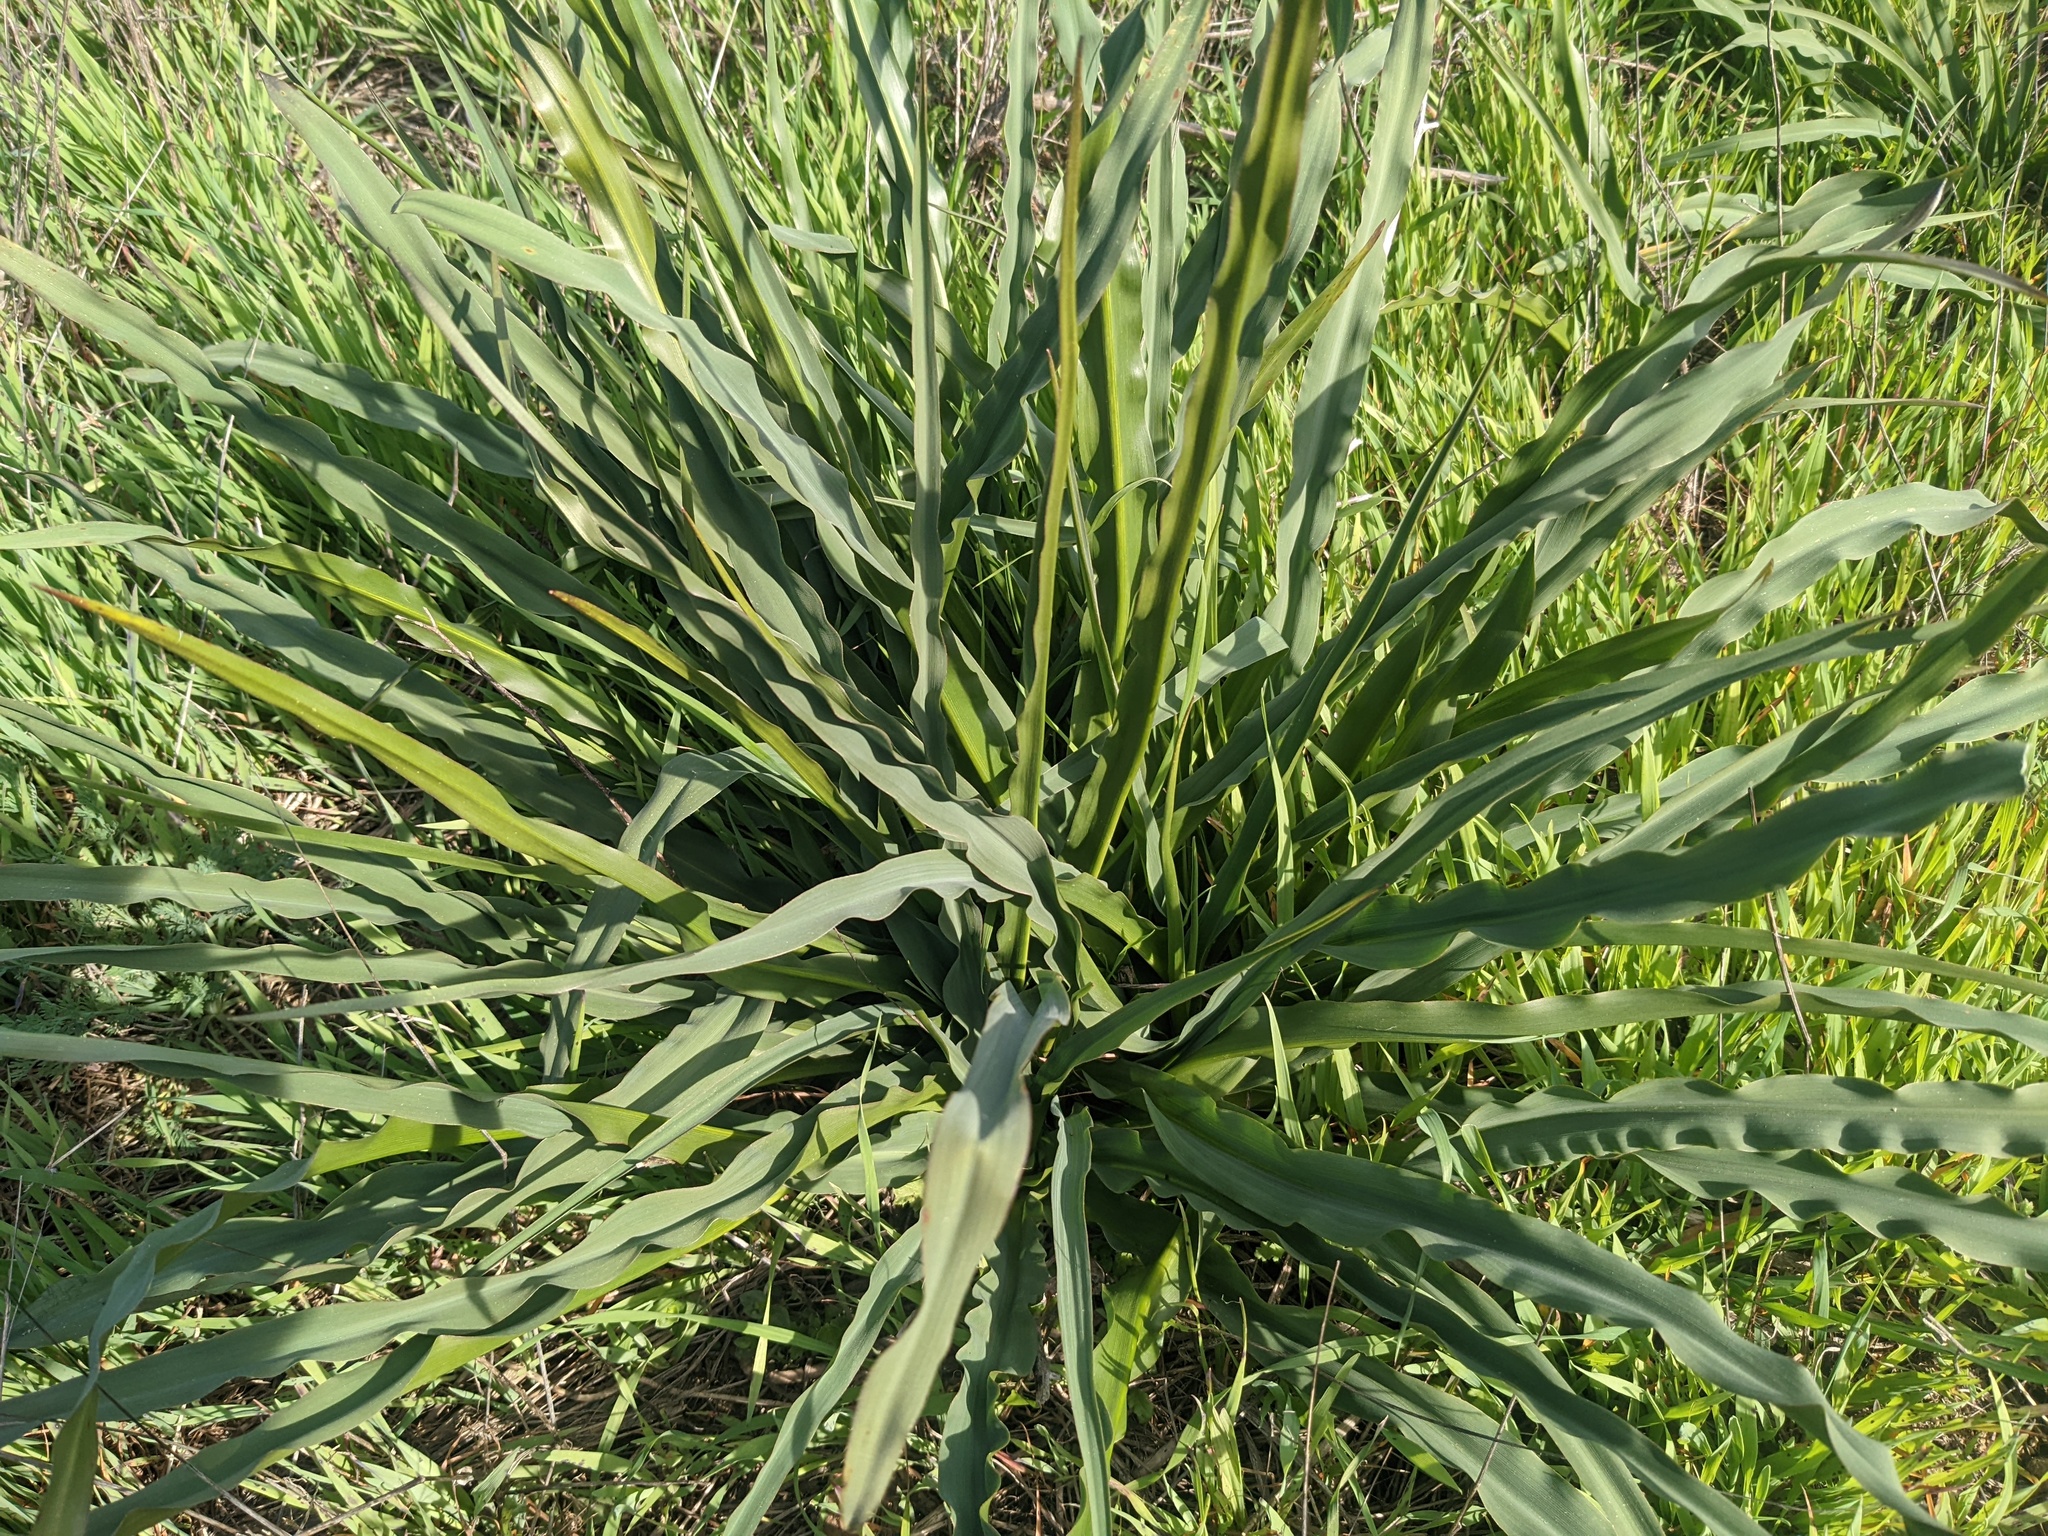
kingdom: Plantae
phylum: Tracheophyta
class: Liliopsida
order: Asparagales
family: Asparagaceae
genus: Chlorogalum
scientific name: Chlorogalum pomeridianum
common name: Amole
